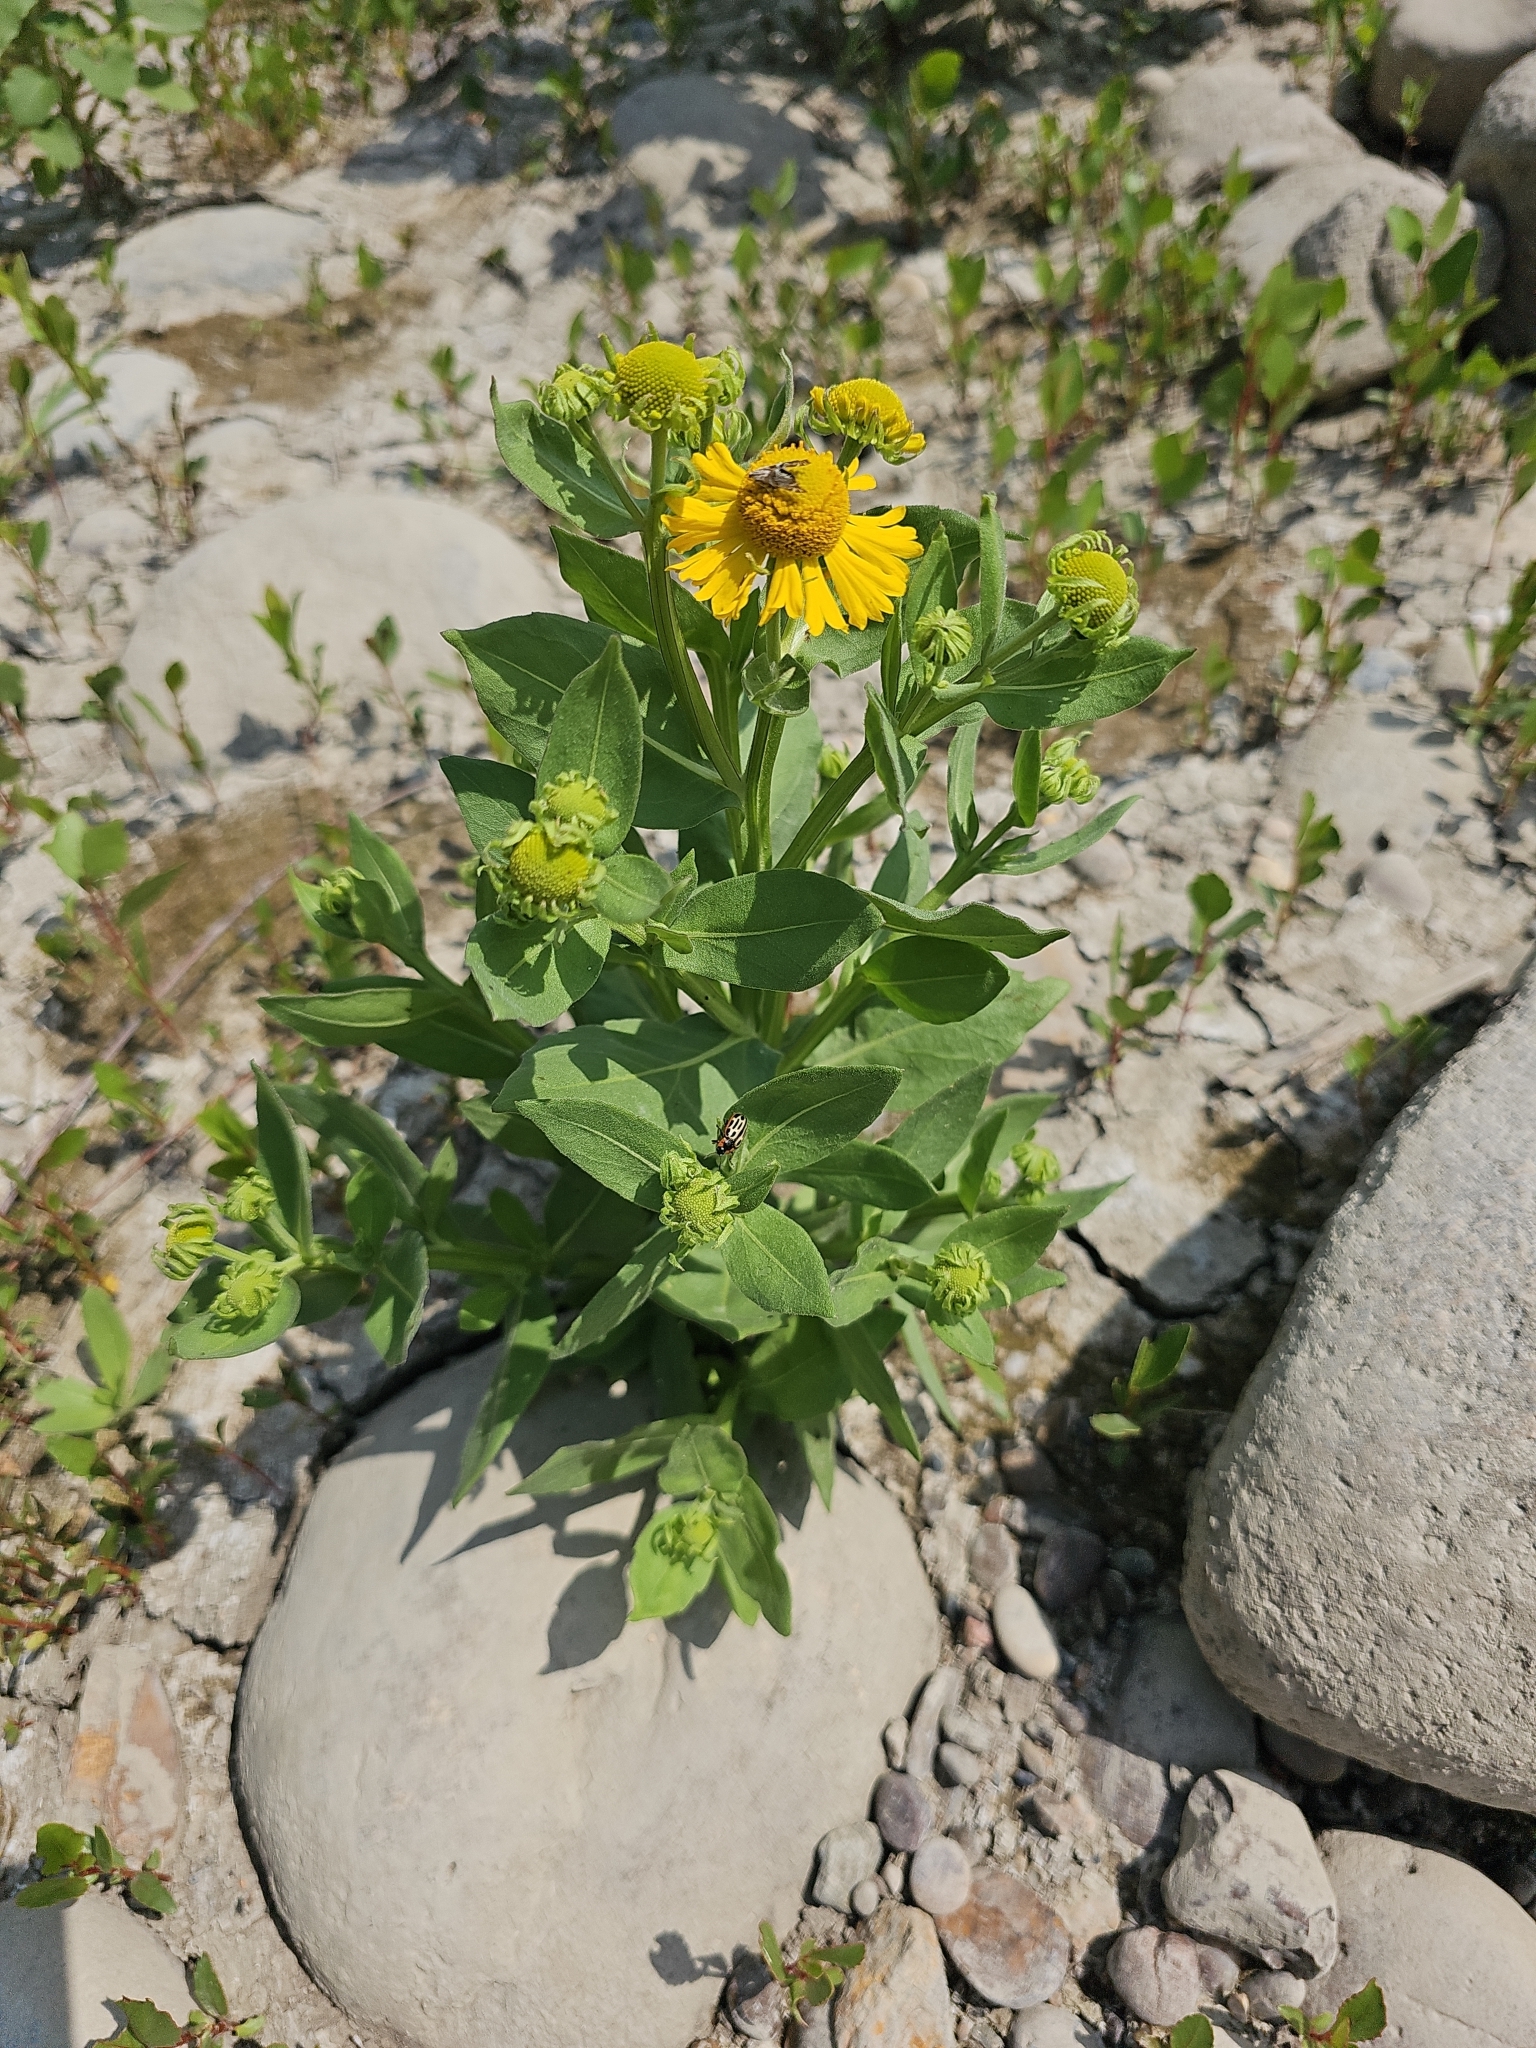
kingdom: Plantae
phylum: Tracheophyta
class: Magnoliopsida
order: Asterales
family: Asteraceae
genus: Helenium
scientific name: Helenium autumnale
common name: Sneezeweed
